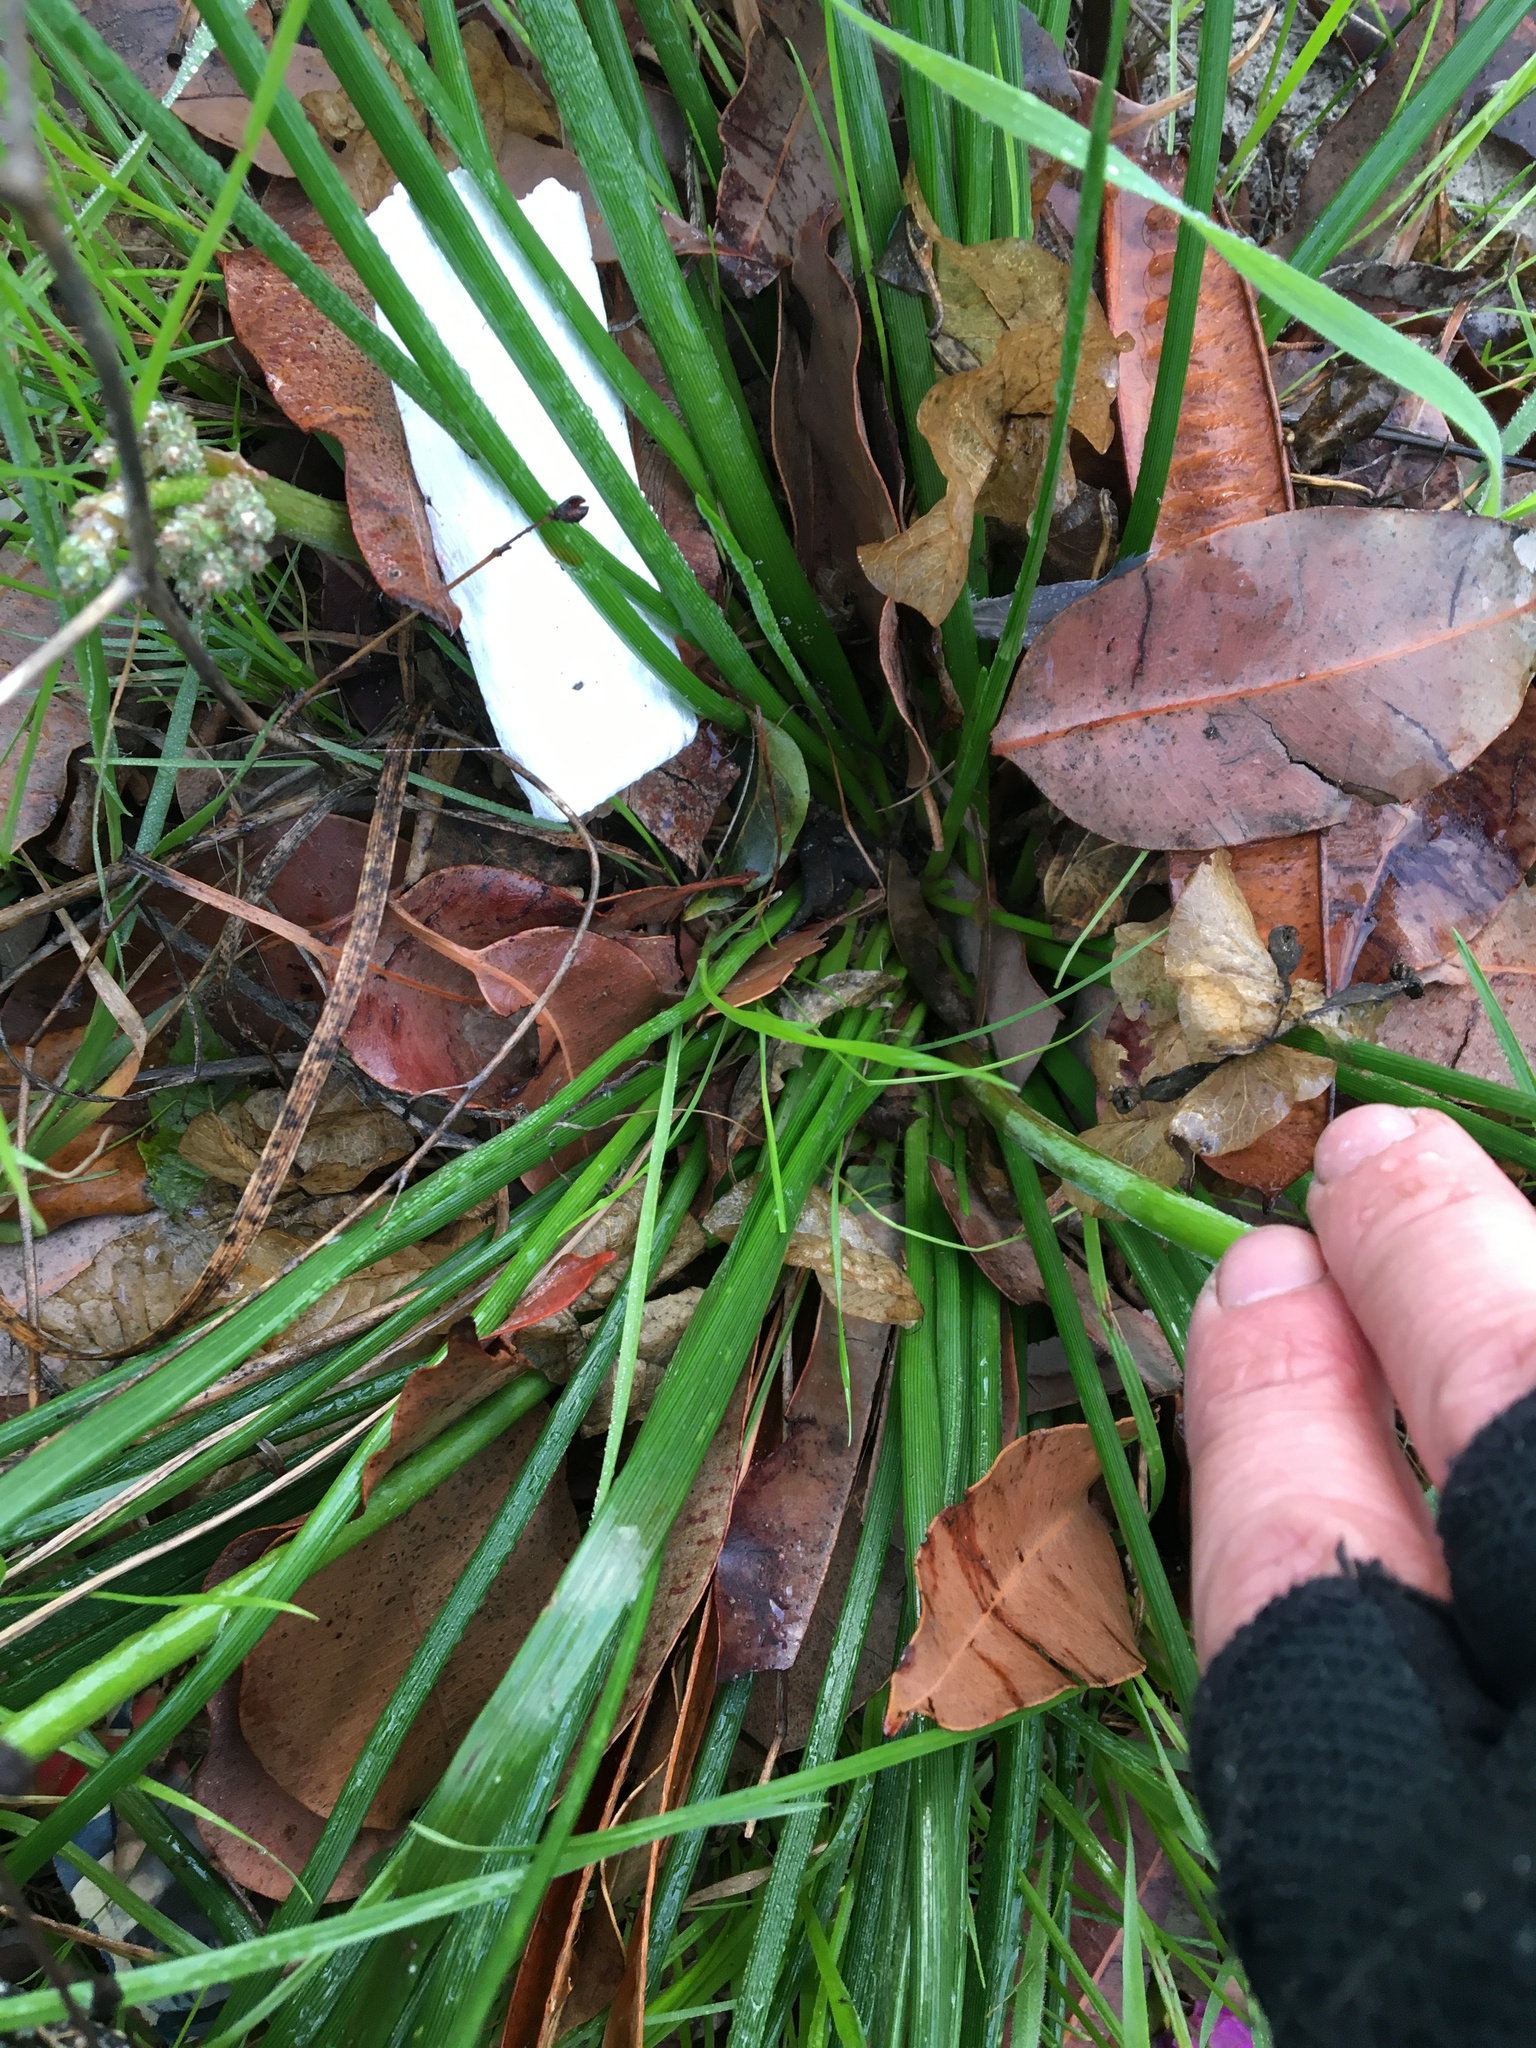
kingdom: Plantae
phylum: Tracheophyta
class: Liliopsida
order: Asparagales
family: Asphodelaceae
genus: Trachyandra
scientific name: Trachyandra revoluta
